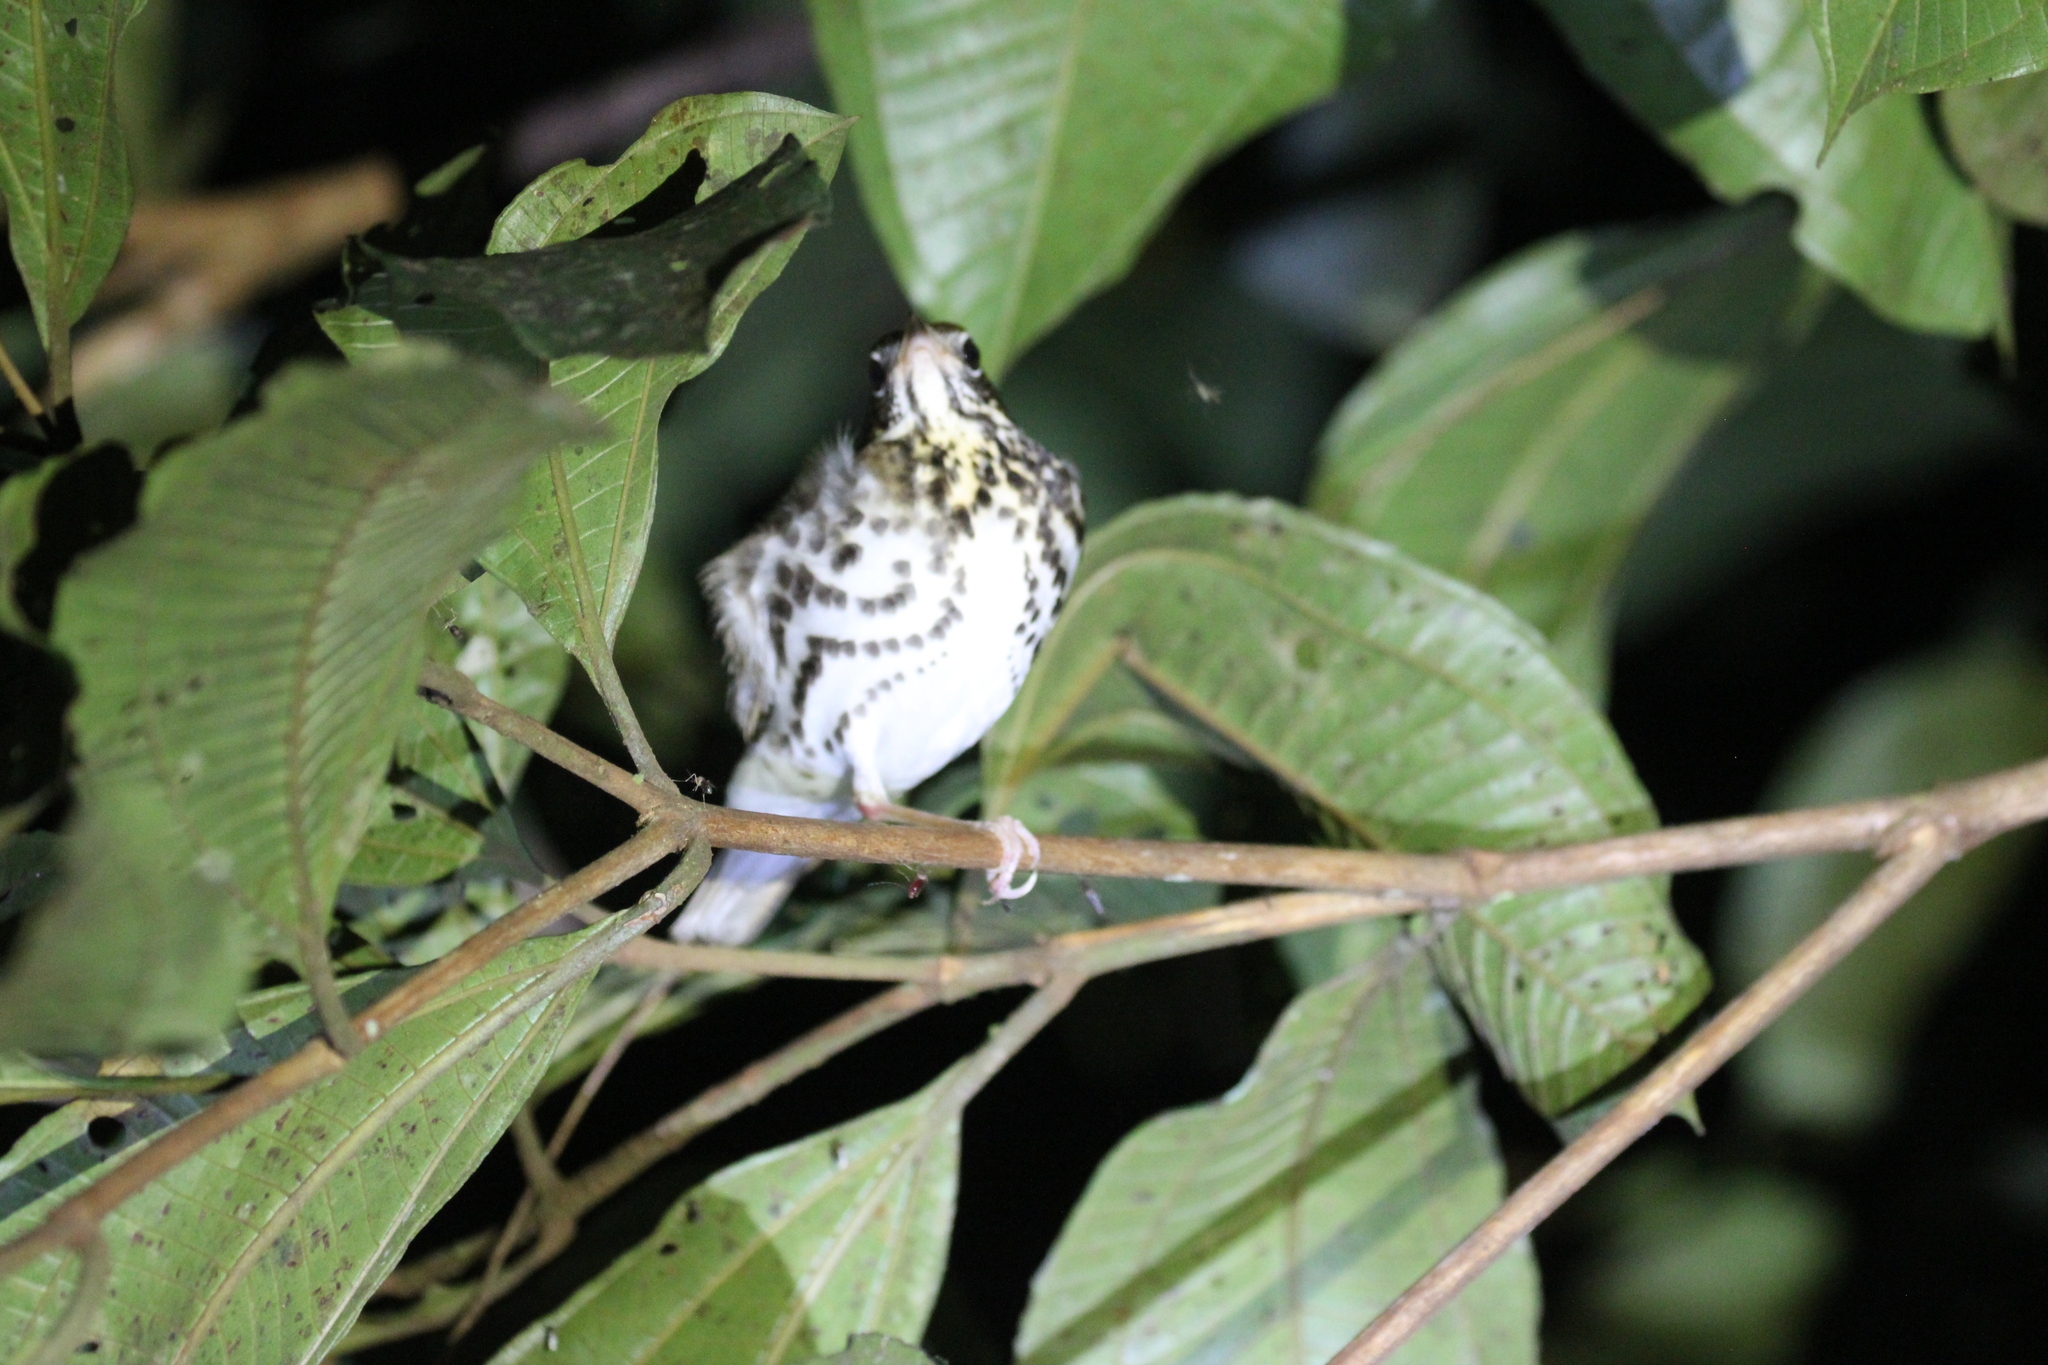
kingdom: Animalia
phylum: Chordata
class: Aves
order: Passeriformes
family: Turdidae
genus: Hylocichla
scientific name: Hylocichla mustelina
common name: Wood thrush
